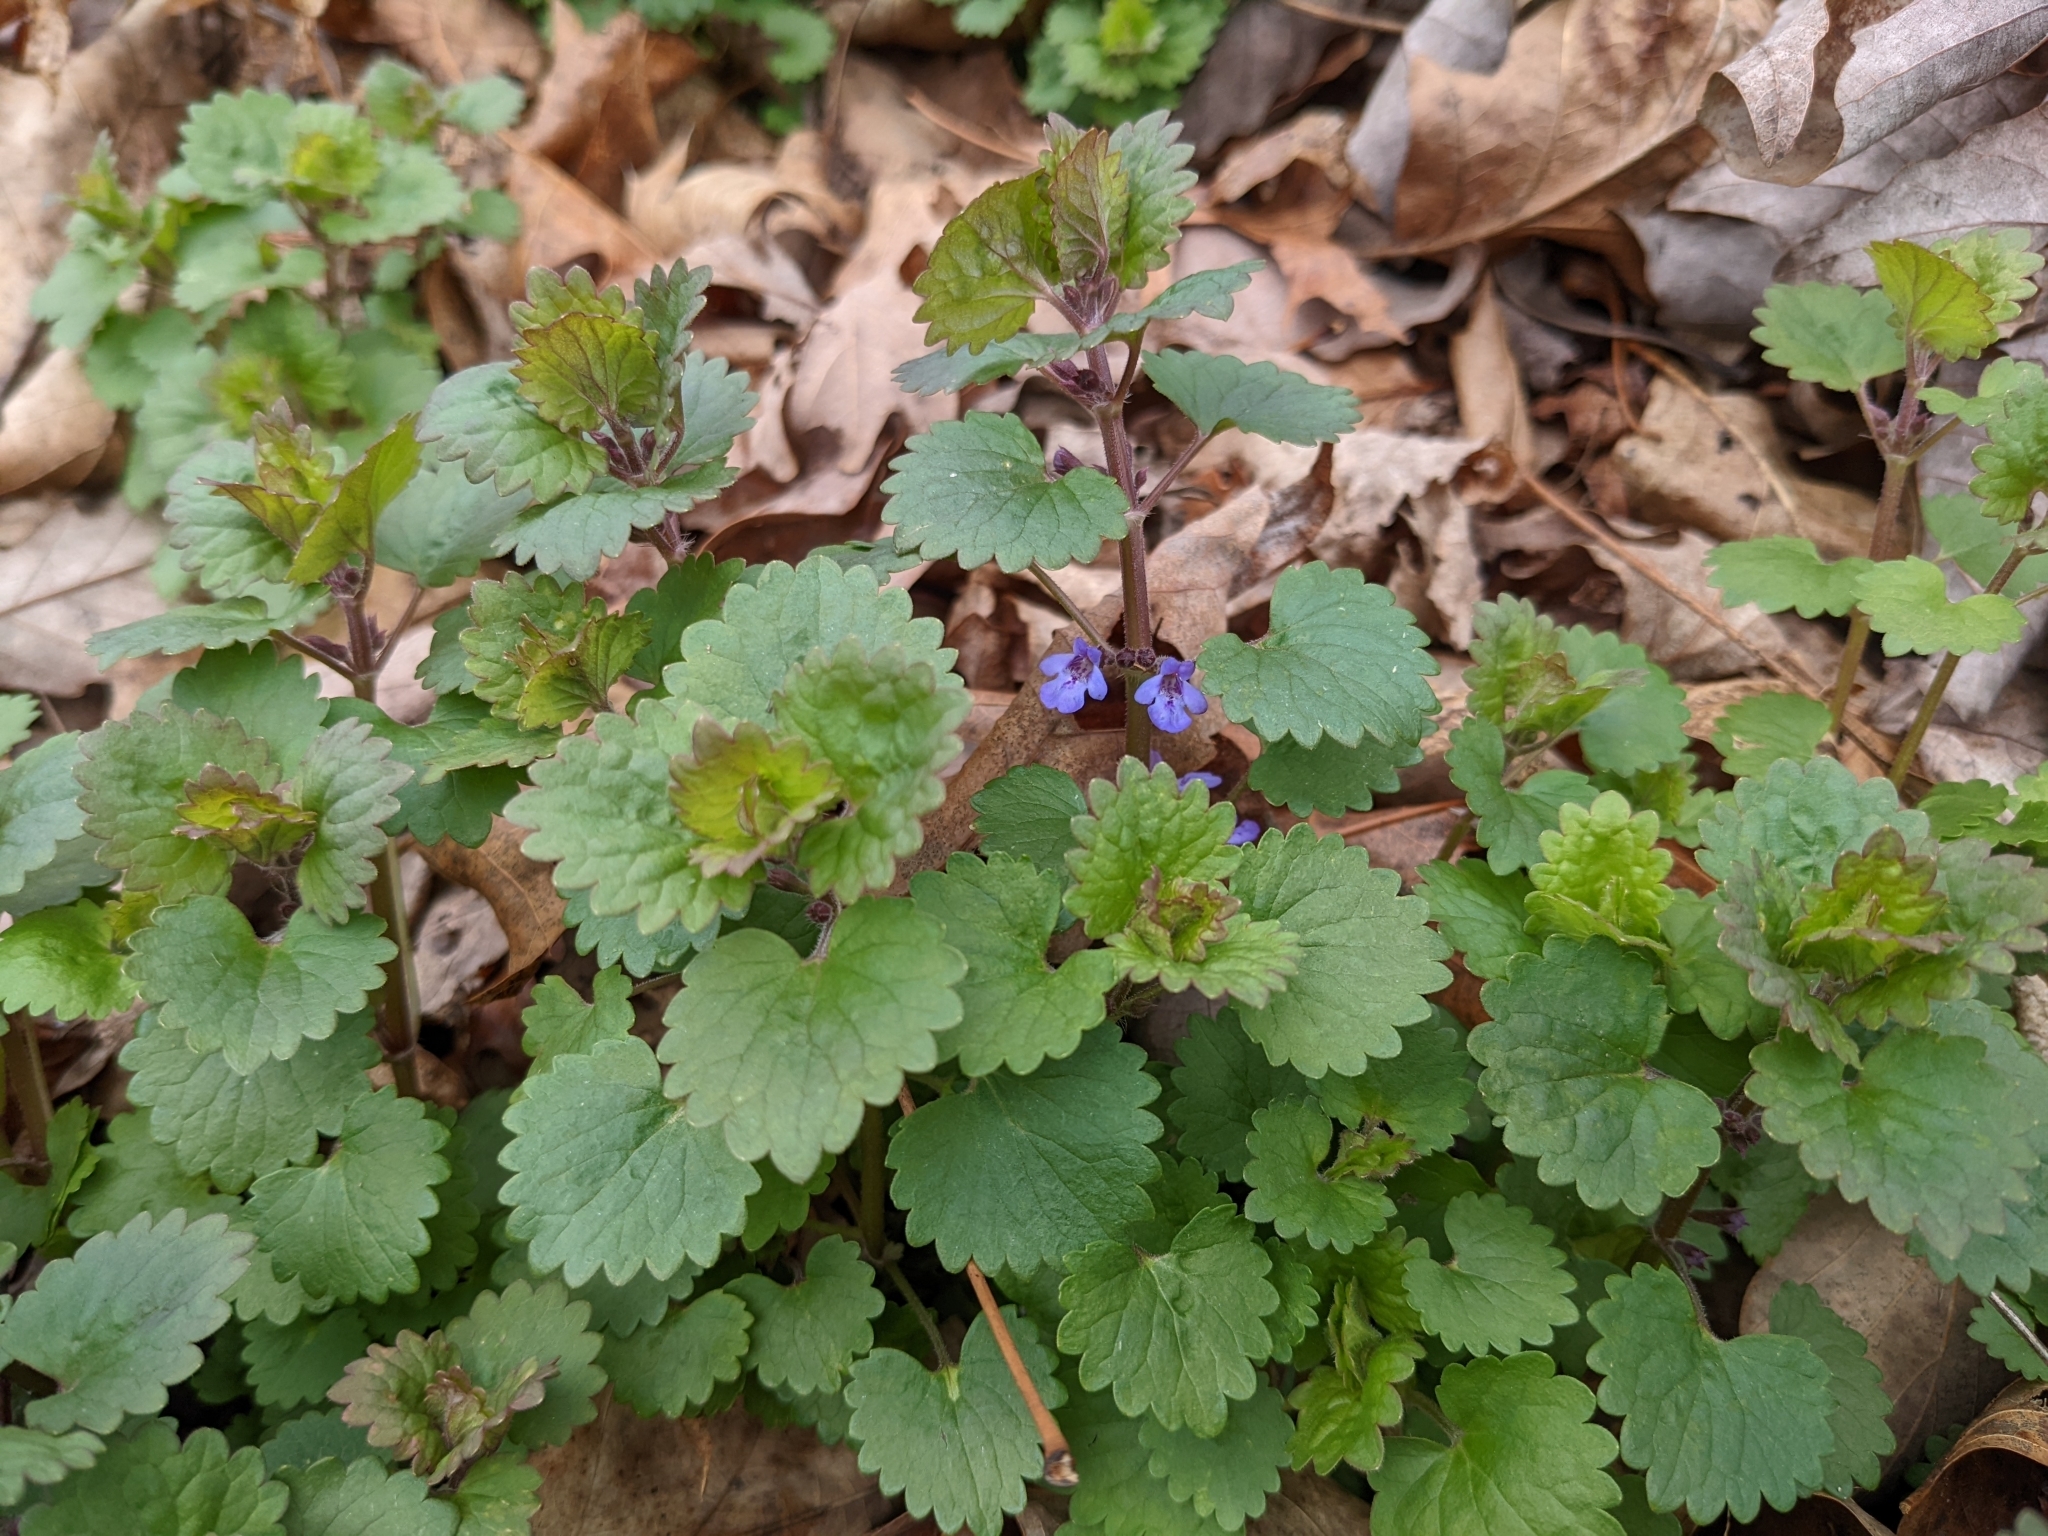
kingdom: Plantae
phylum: Tracheophyta
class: Magnoliopsida
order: Lamiales
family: Lamiaceae
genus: Glechoma
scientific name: Glechoma hederacea
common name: Ground ivy
